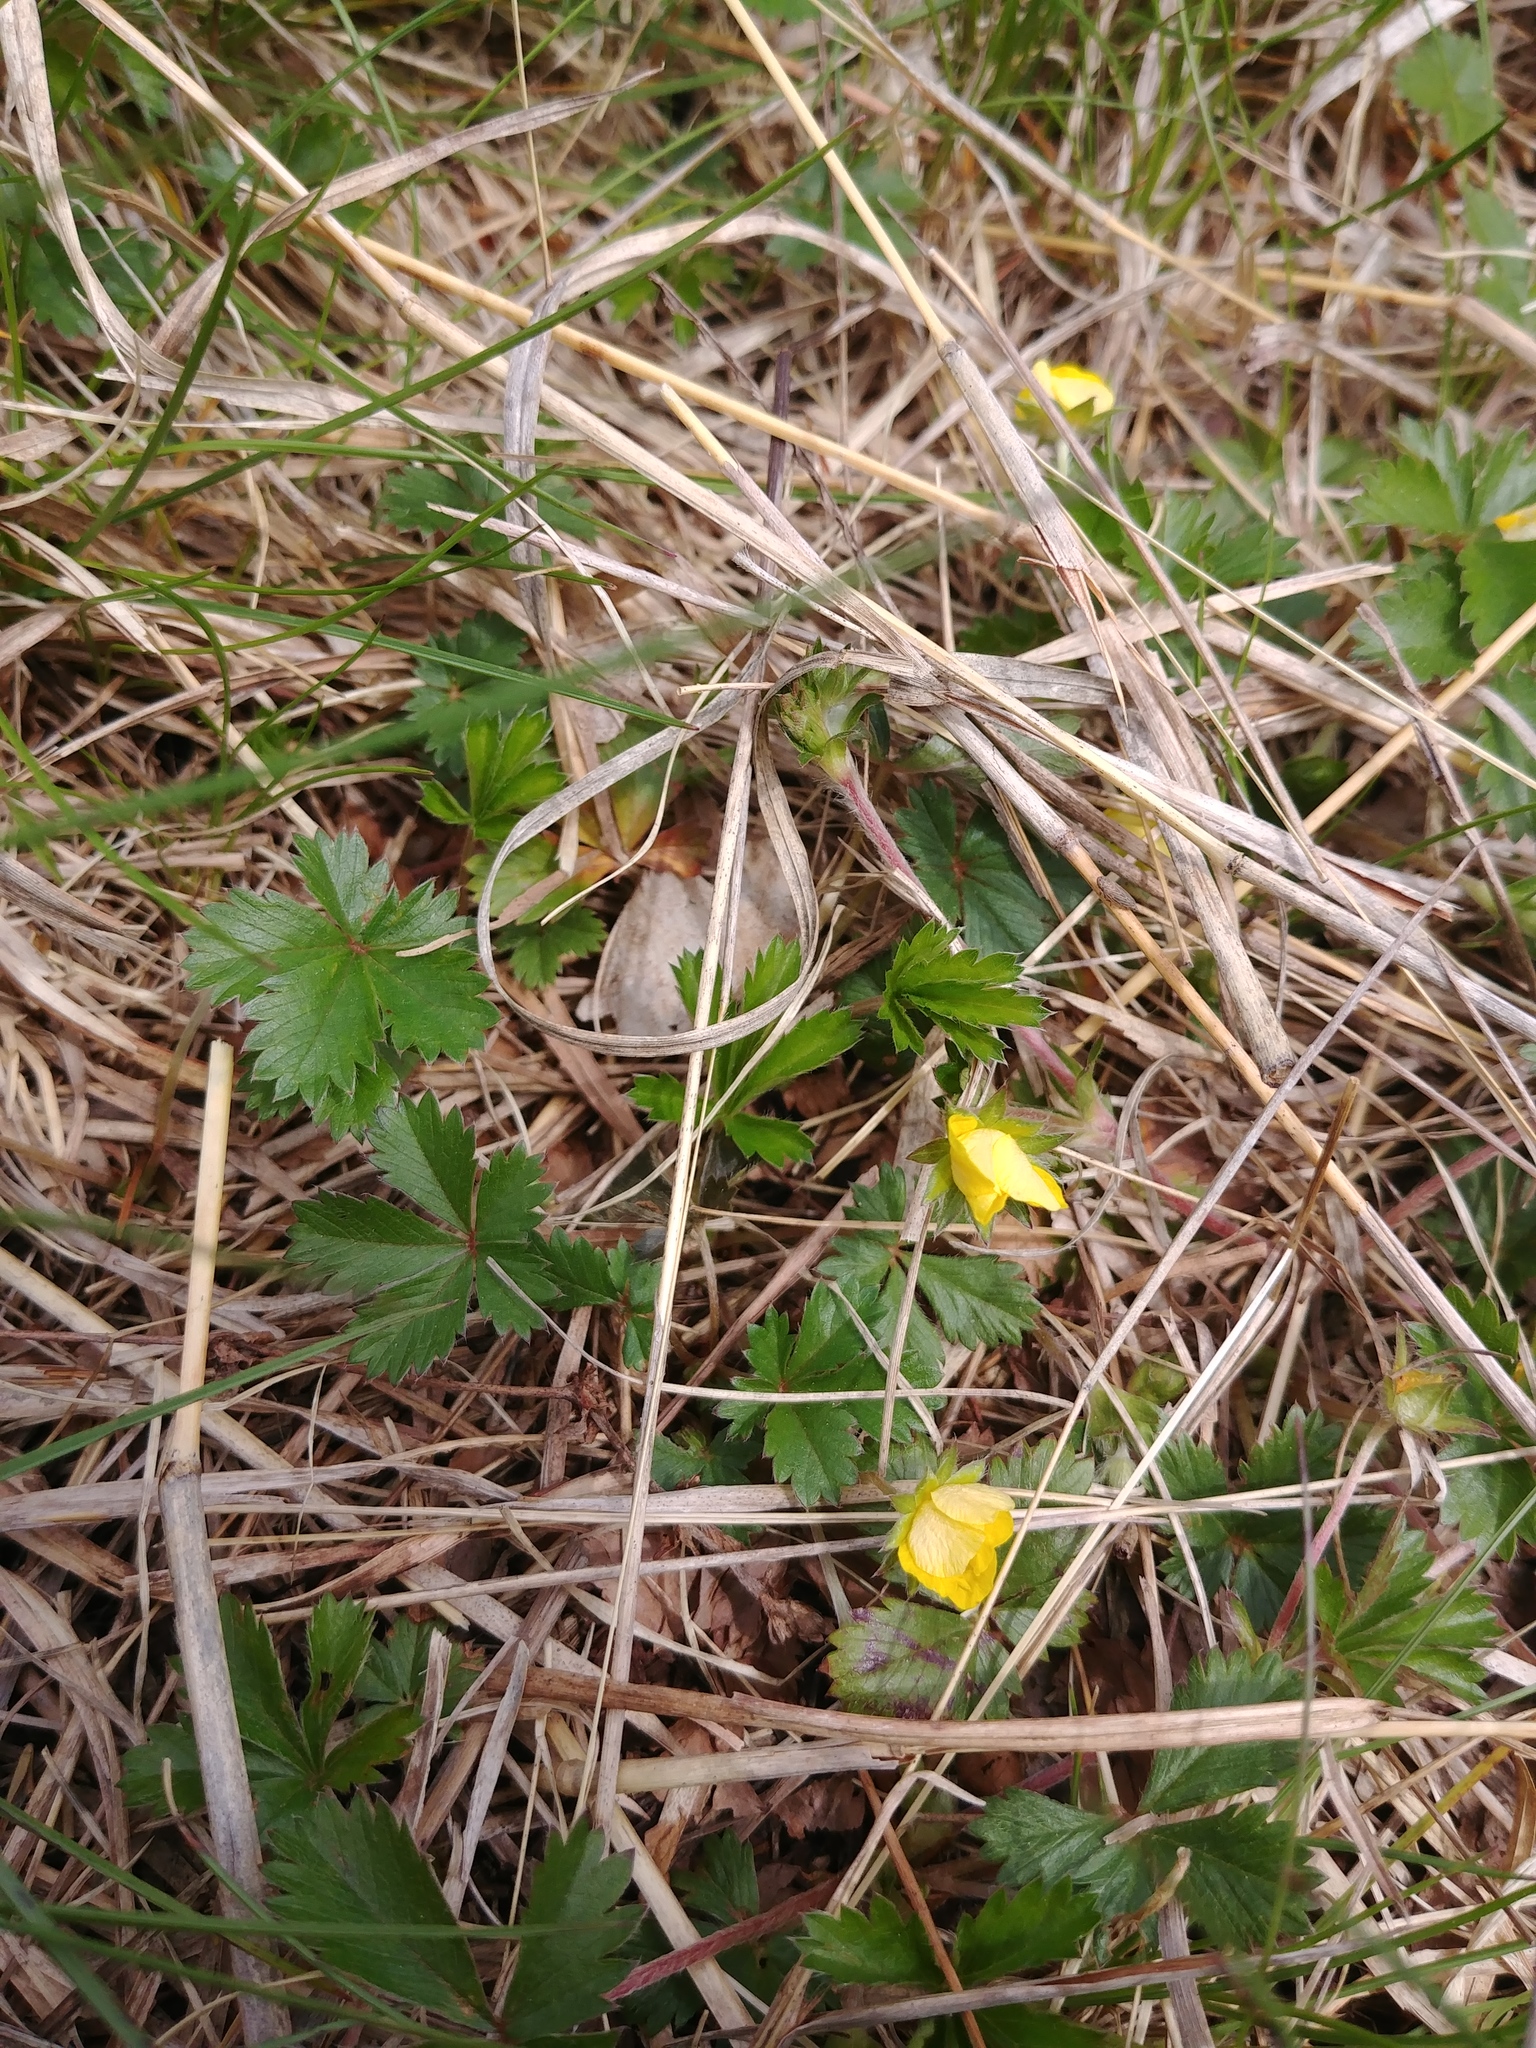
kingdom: Plantae
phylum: Tracheophyta
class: Magnoliopsida
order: Rosales
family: Rosaceae
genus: Potentilla
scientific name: Potentilla canadensis
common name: Canada cinquefoil
